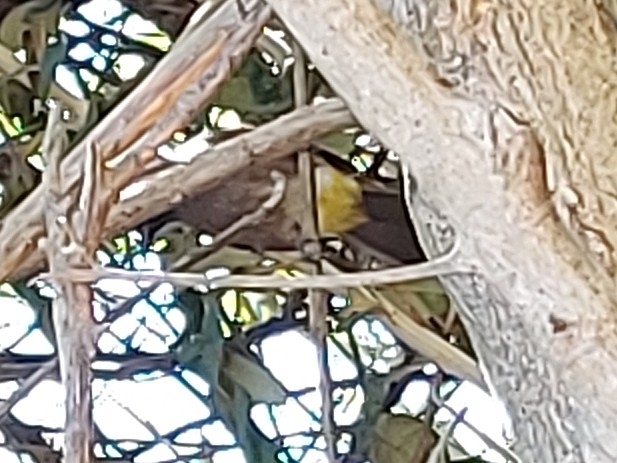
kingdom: Animalia
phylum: Chordata
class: Aves
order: Passeriformes
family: Pycnonotidae
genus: Pycnonotus
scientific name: Pycnonotus capensis
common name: Cape bulbul
